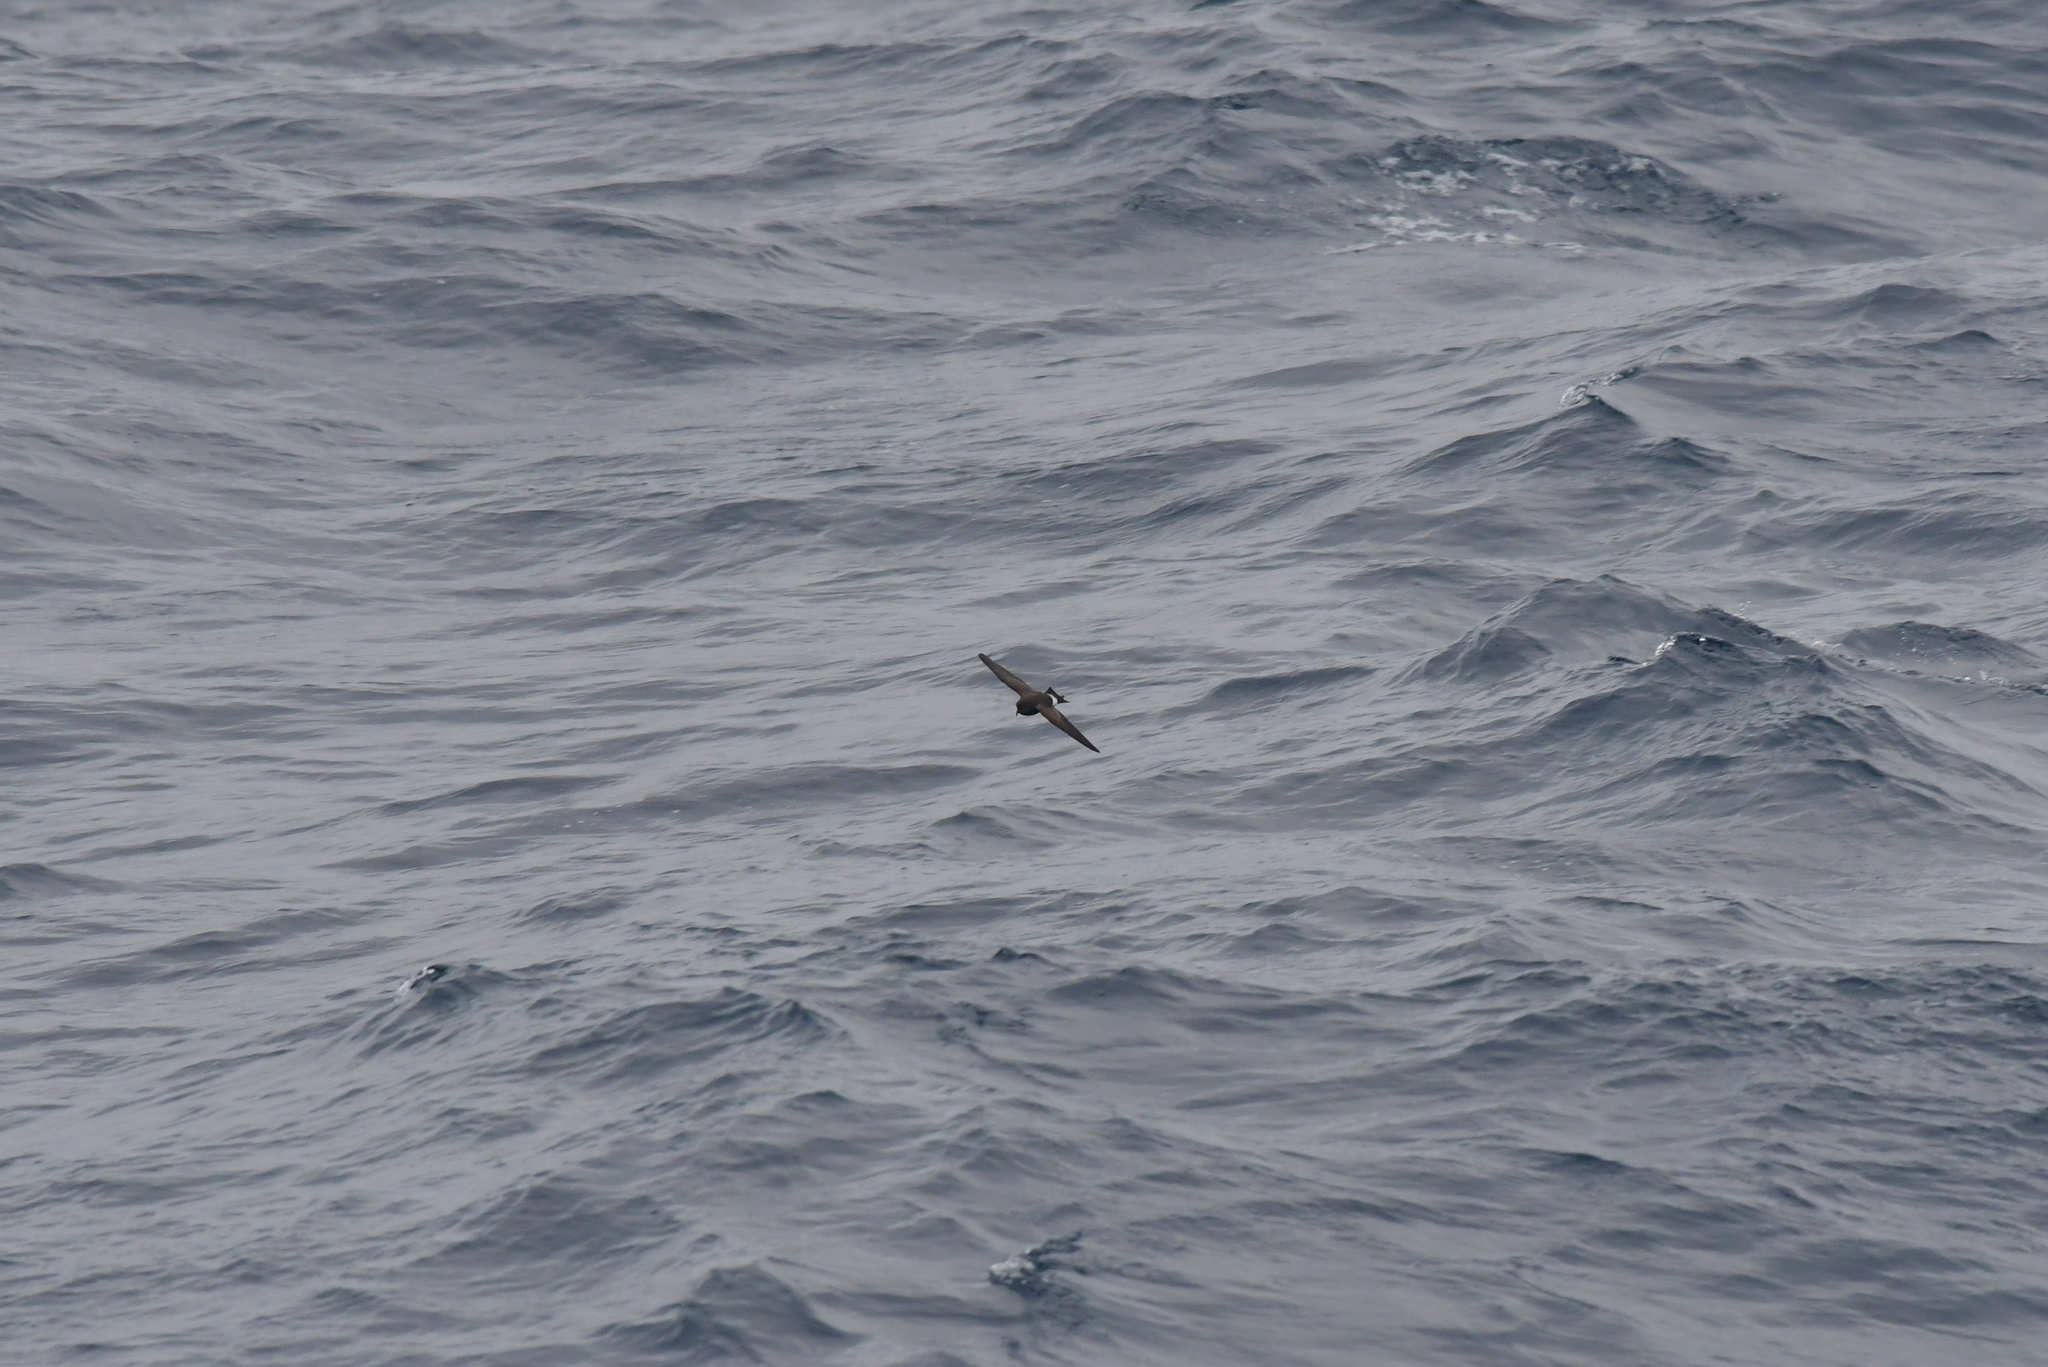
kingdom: Animalia
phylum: Chordata
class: Aves
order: Procellariiformes
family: Hydrobatidae
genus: Fregetta
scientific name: Fregetta tropica
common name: Black-bellied storm-petrel
